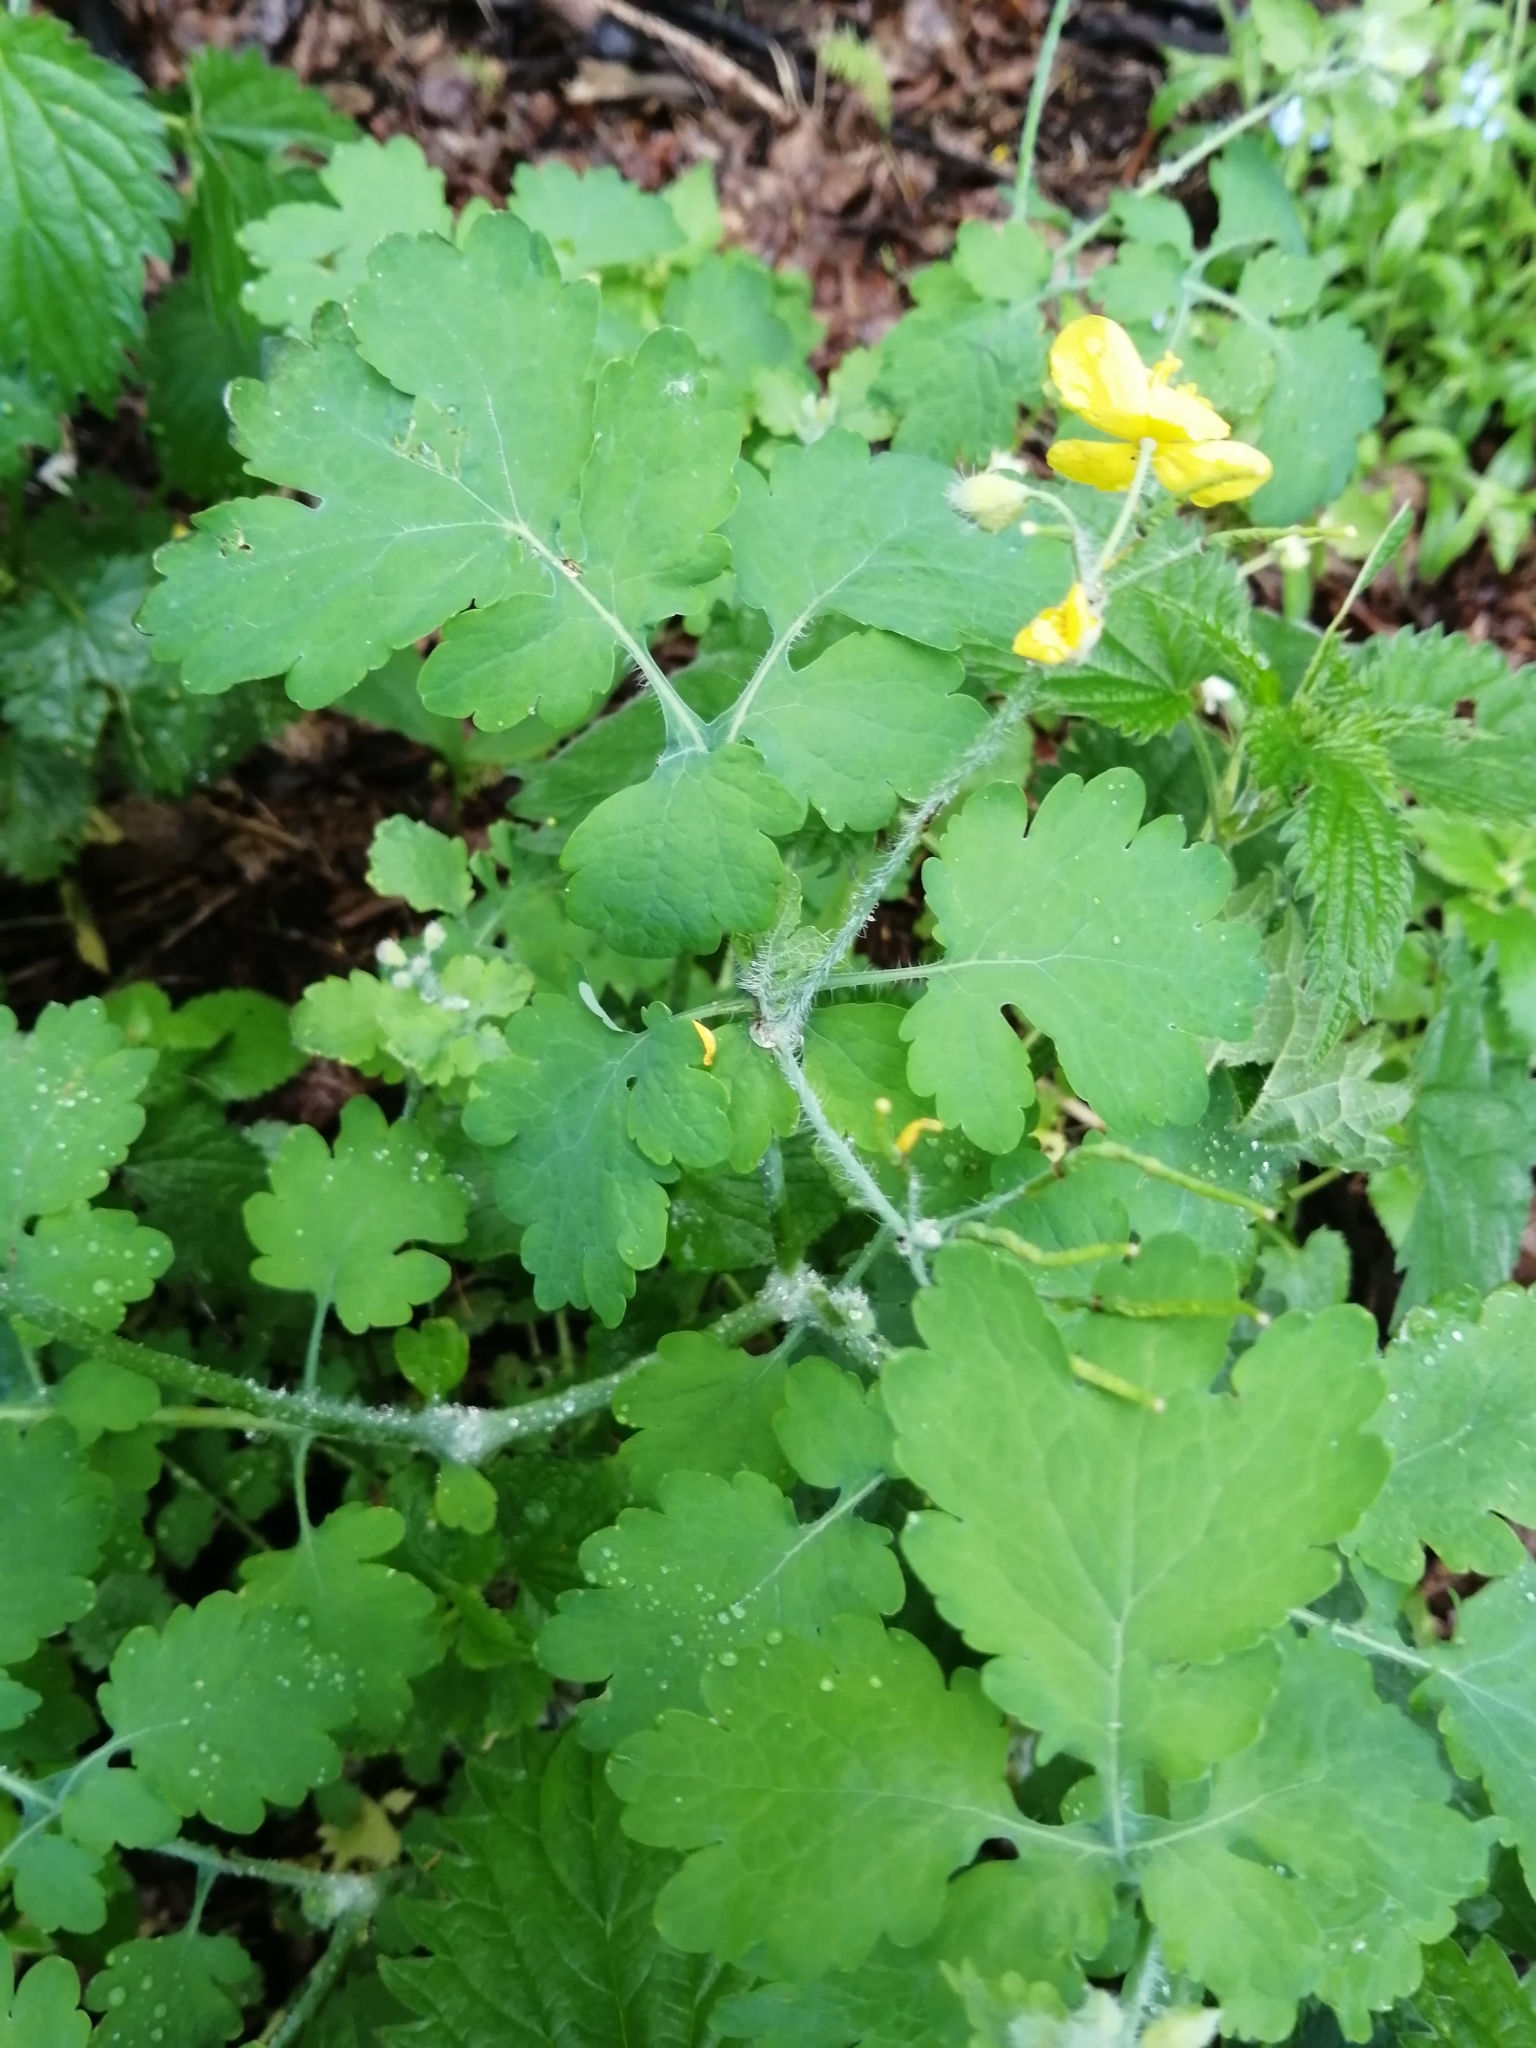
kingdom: Plantae
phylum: Tracheophyta
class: Magnoliopsida
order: Ranunculales
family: Papaveraceae
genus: Chelidonium
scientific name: Chelidonium majus
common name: Greater celandine
